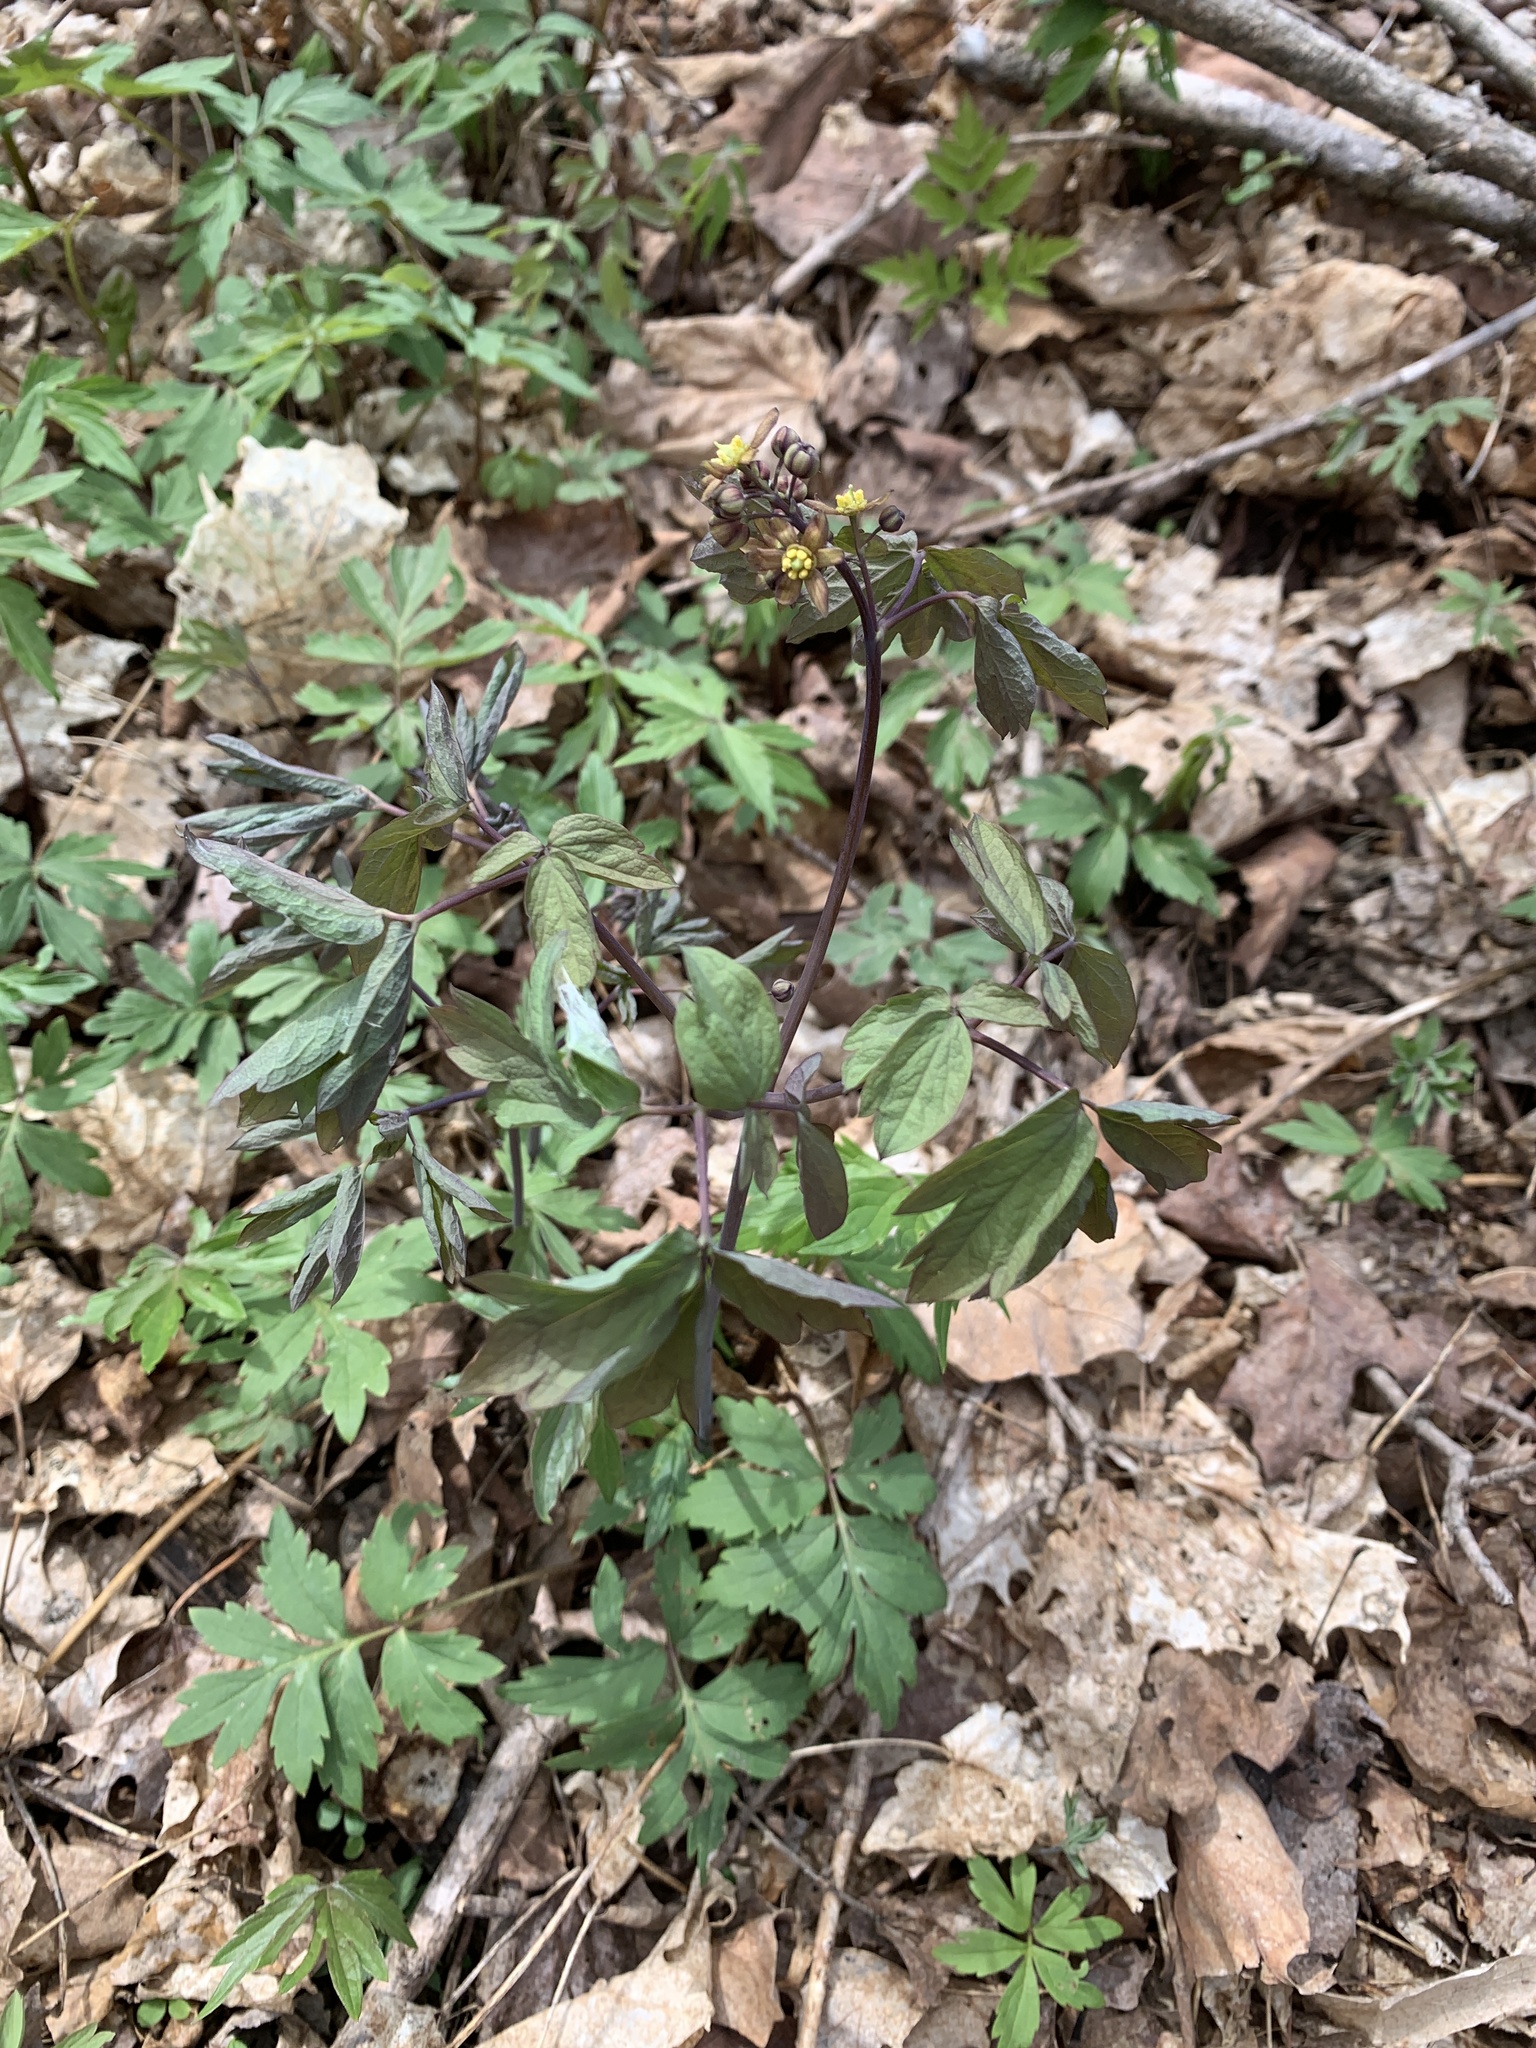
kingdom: Plantae
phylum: Tracheophyta
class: Magnoliopsida
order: Ranunculales
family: Berberidaceae
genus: Caulophyllum
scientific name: Caulophyllum thalictroides
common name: Blue cohosh
